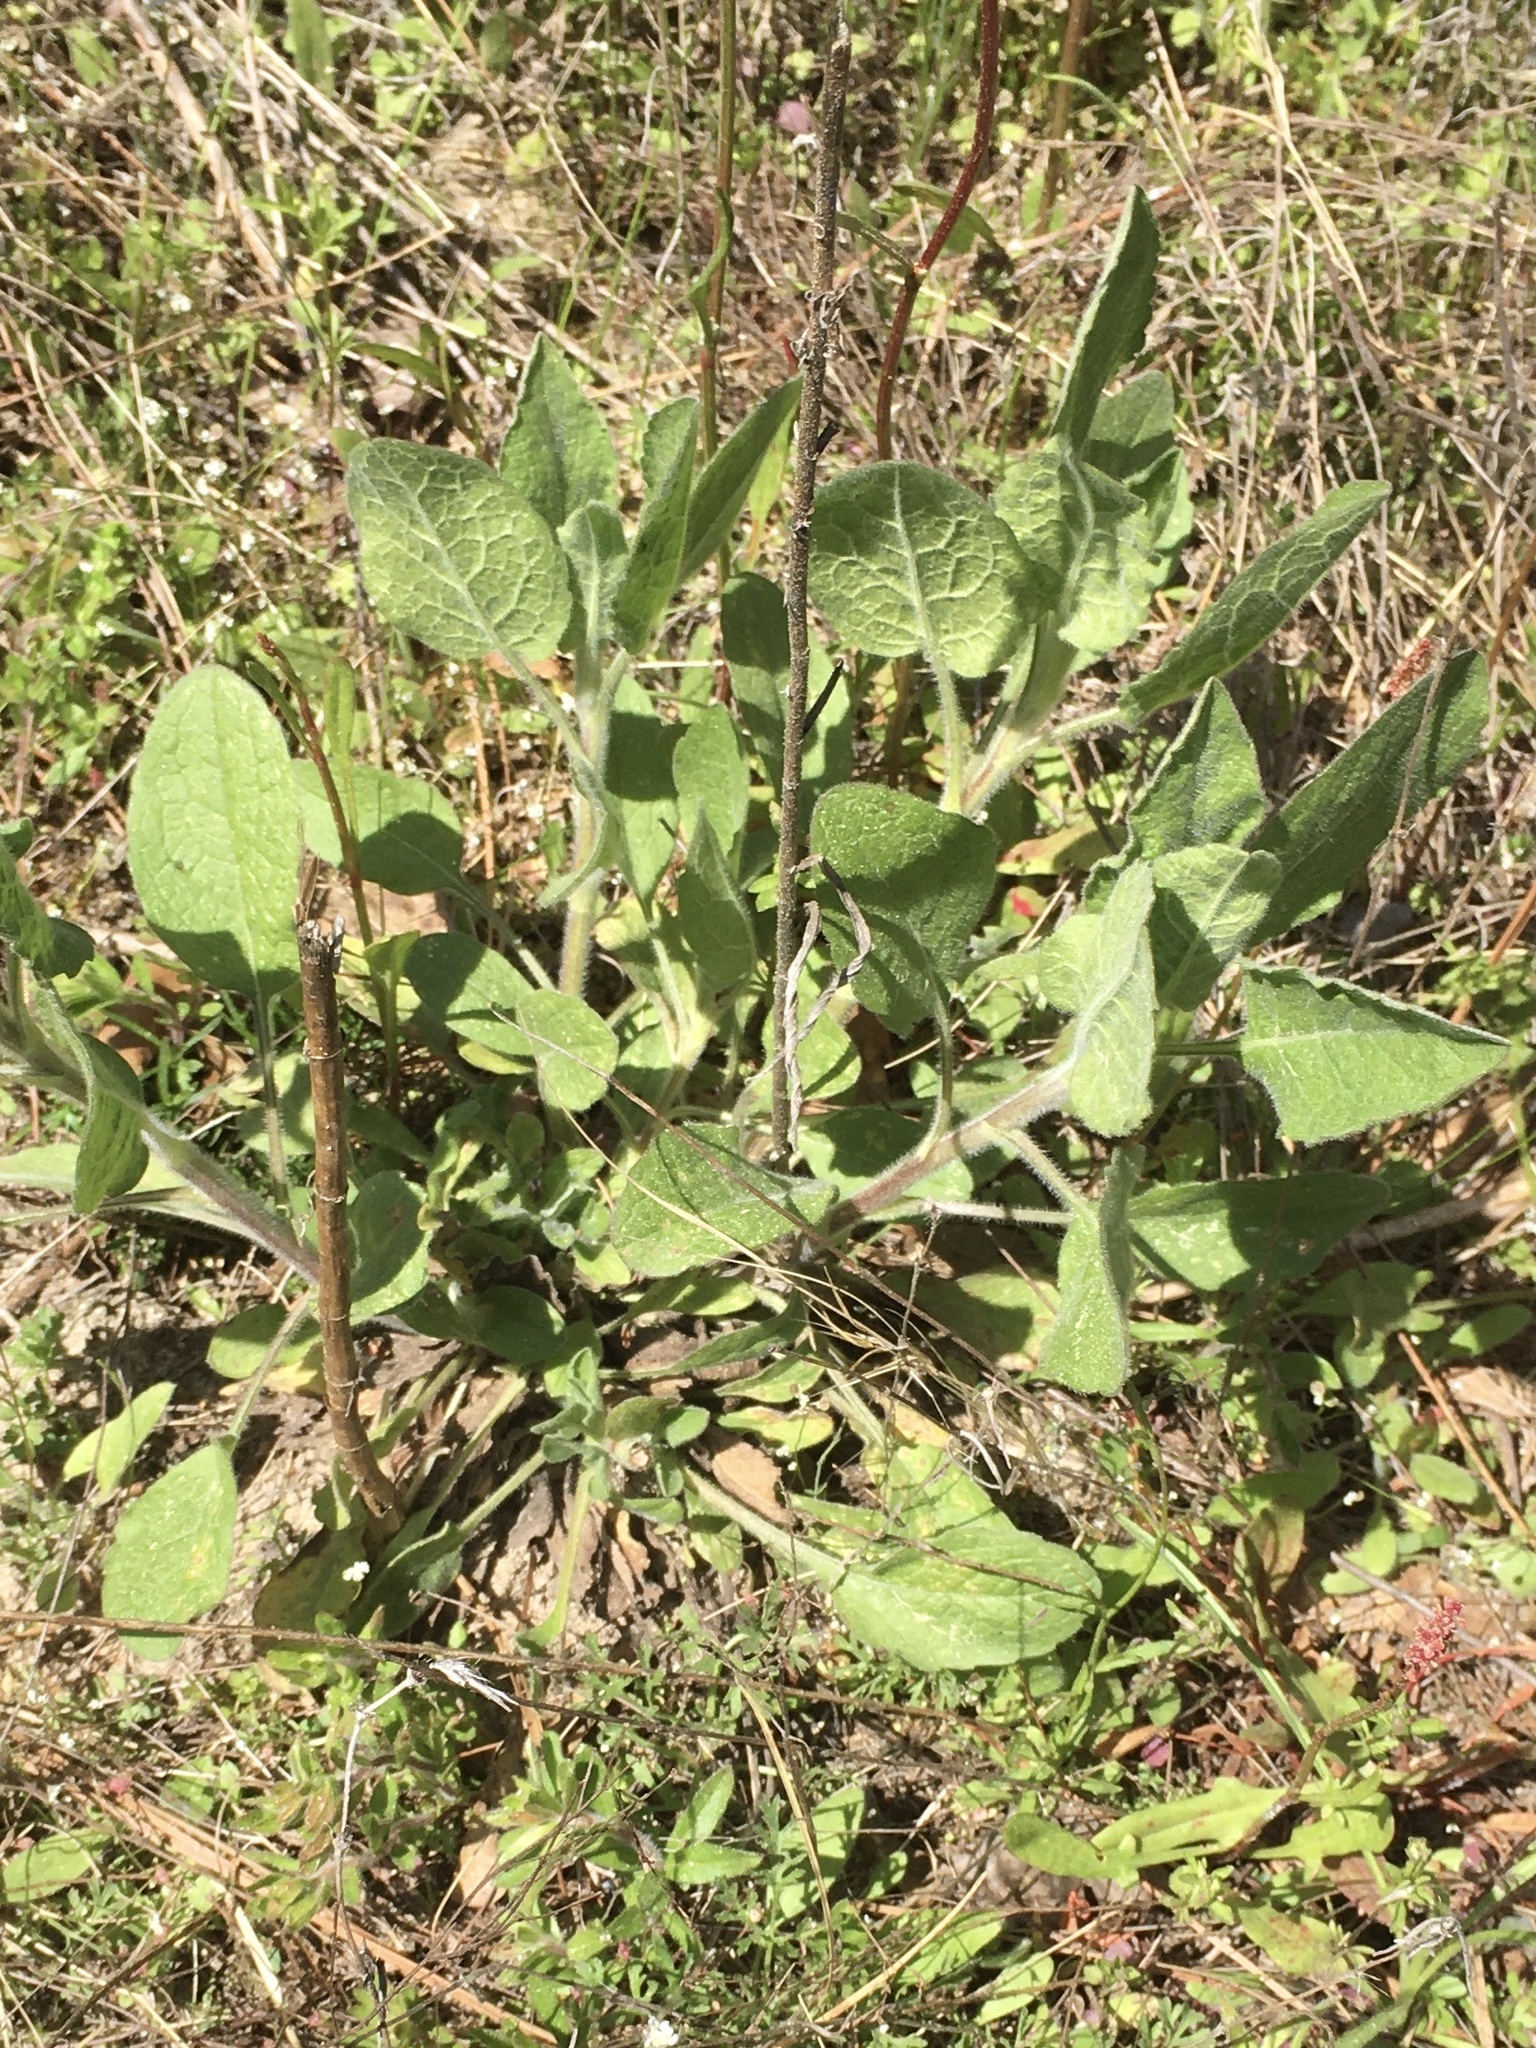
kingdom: Plantae
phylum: Tracheophyta
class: Magnoliopsida
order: Asterales
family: Asteraceae
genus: Heterotheca
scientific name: Heterotheca subaxillaris
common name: Camphorweed
